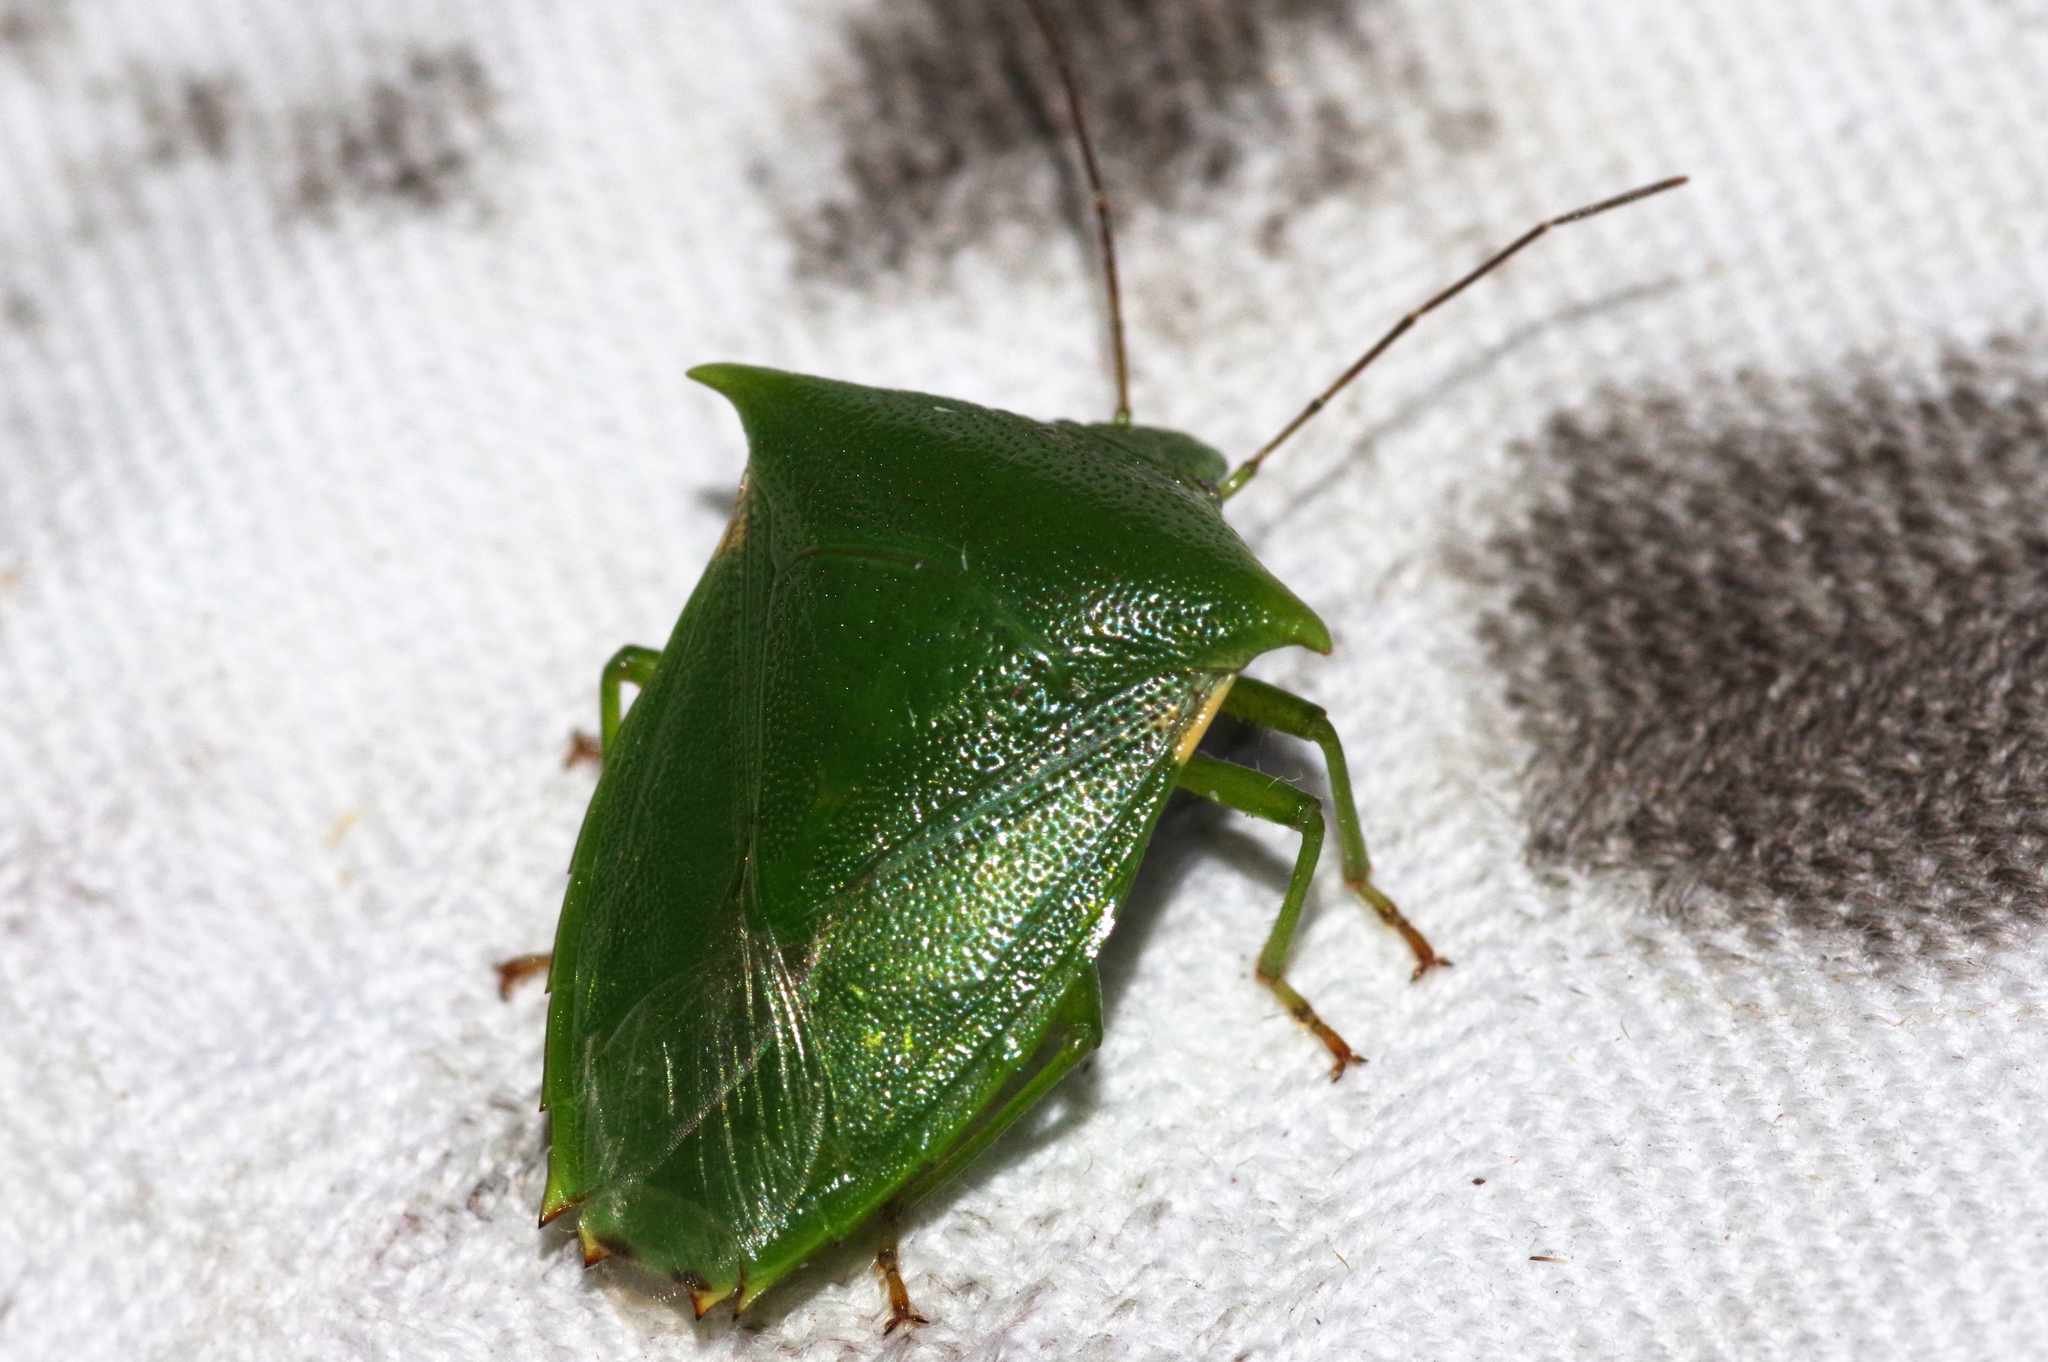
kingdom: Animalia
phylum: Arthropoda
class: Insecta
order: Hemiptera
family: Pentatomidae
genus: Vitellus
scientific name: Vitellus
